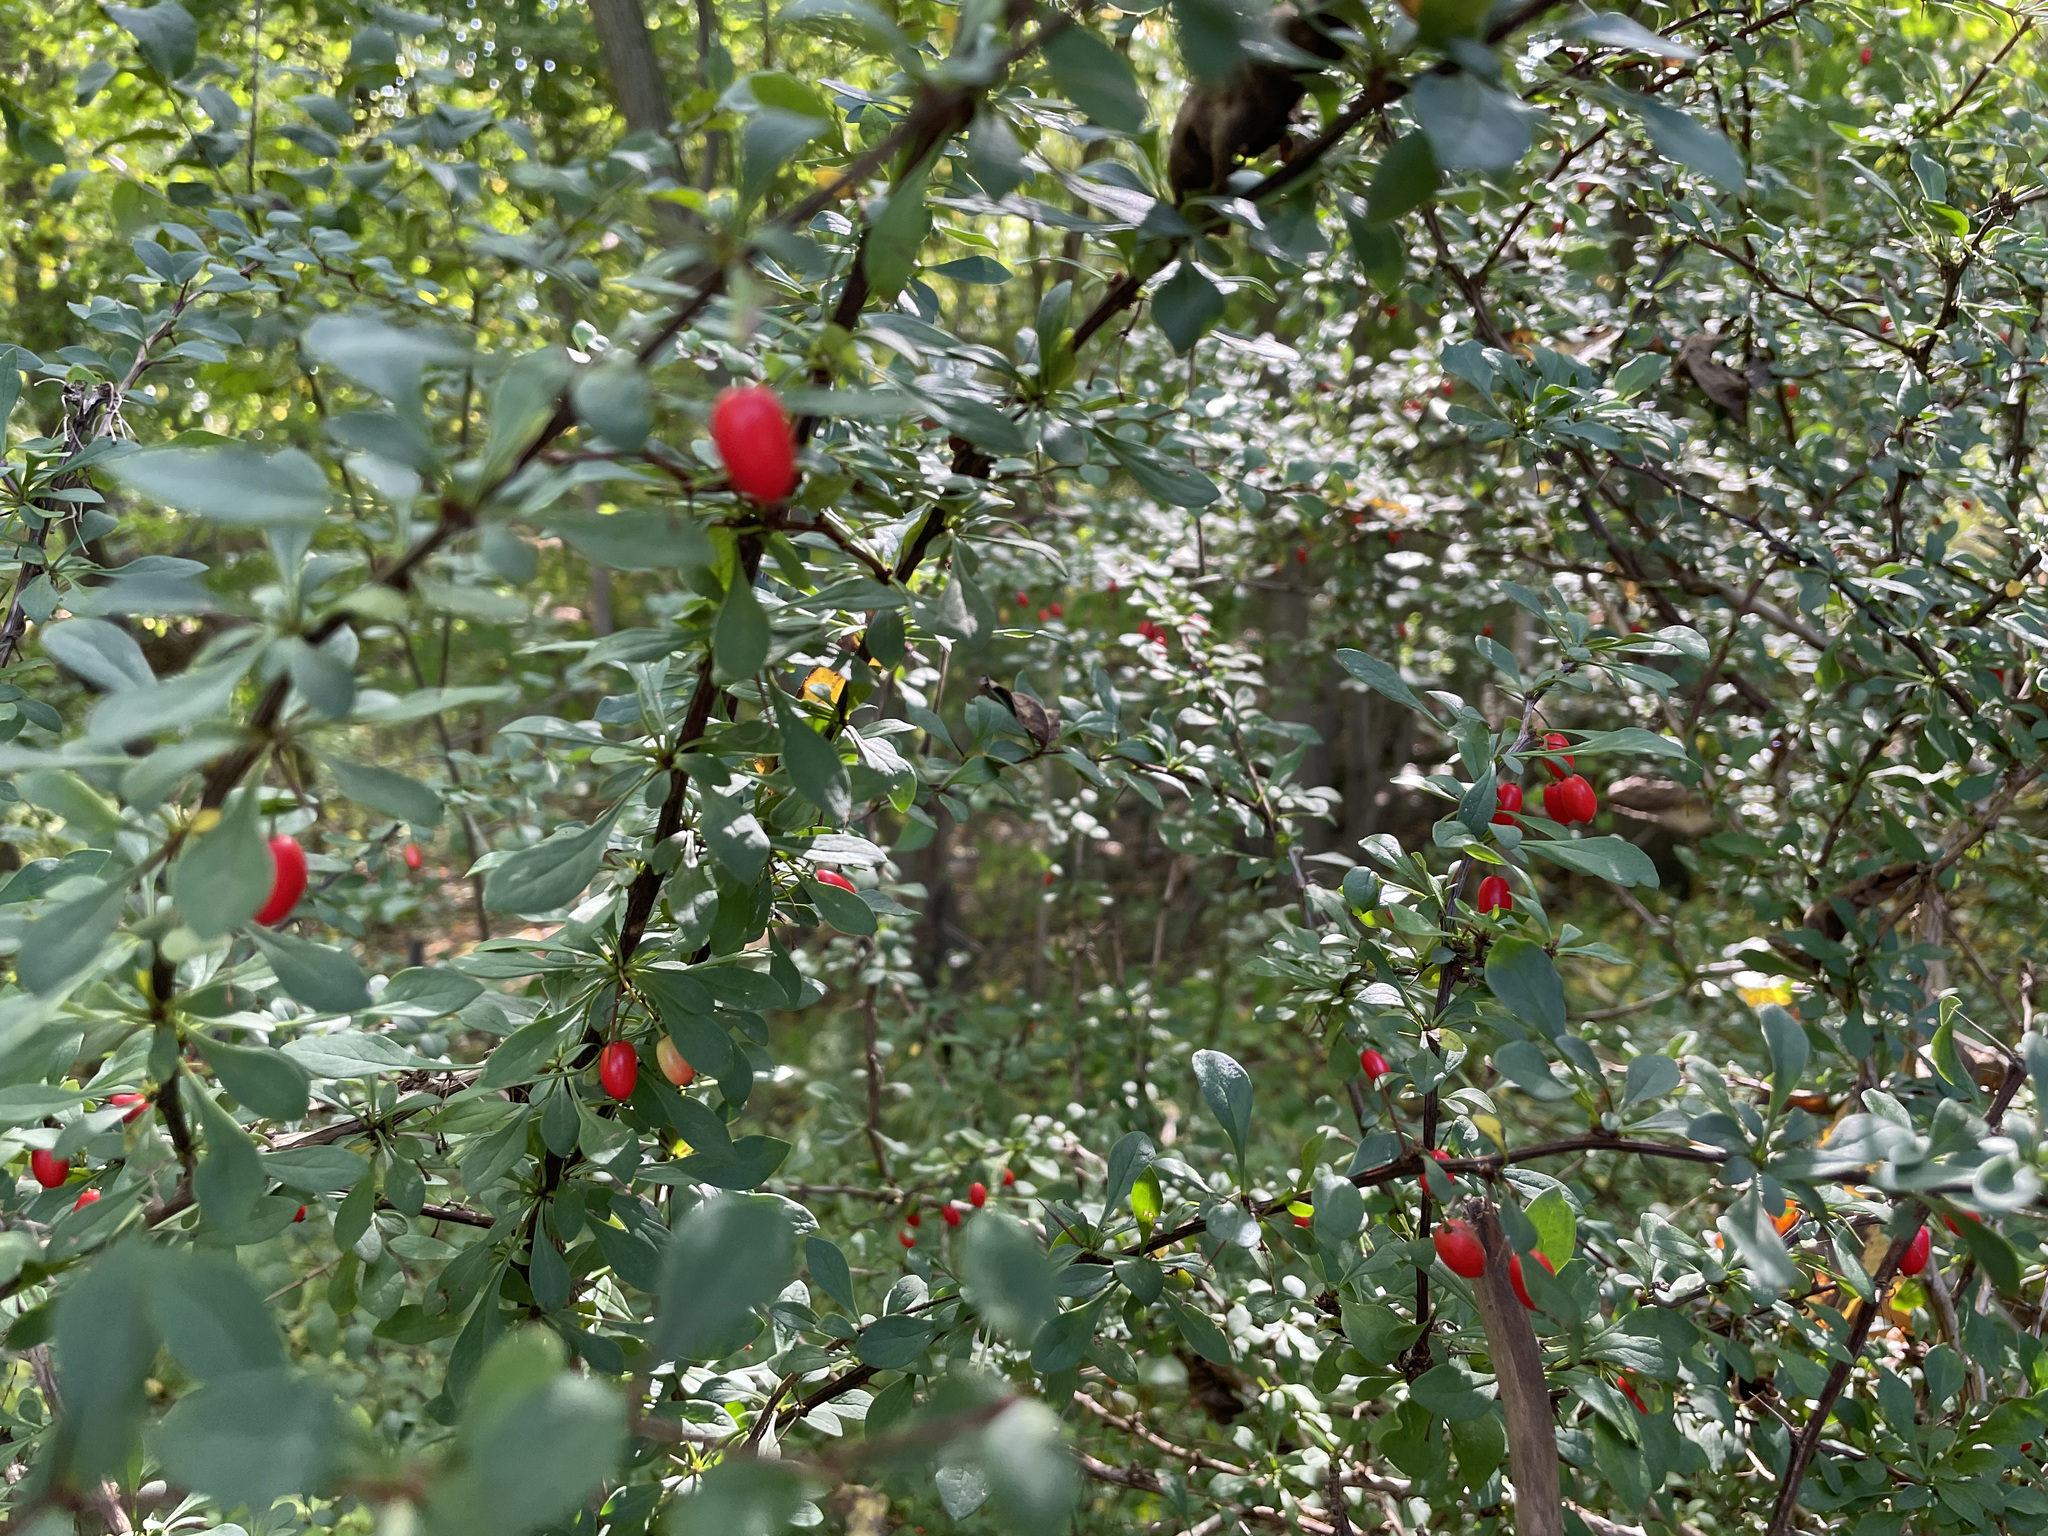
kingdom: Plantae
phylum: Tracheophyta
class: Magnoliopsida
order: Ranunculales
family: Berberidaceae
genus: Berberis
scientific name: Berberis thunbergii
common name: Japanese barberry
